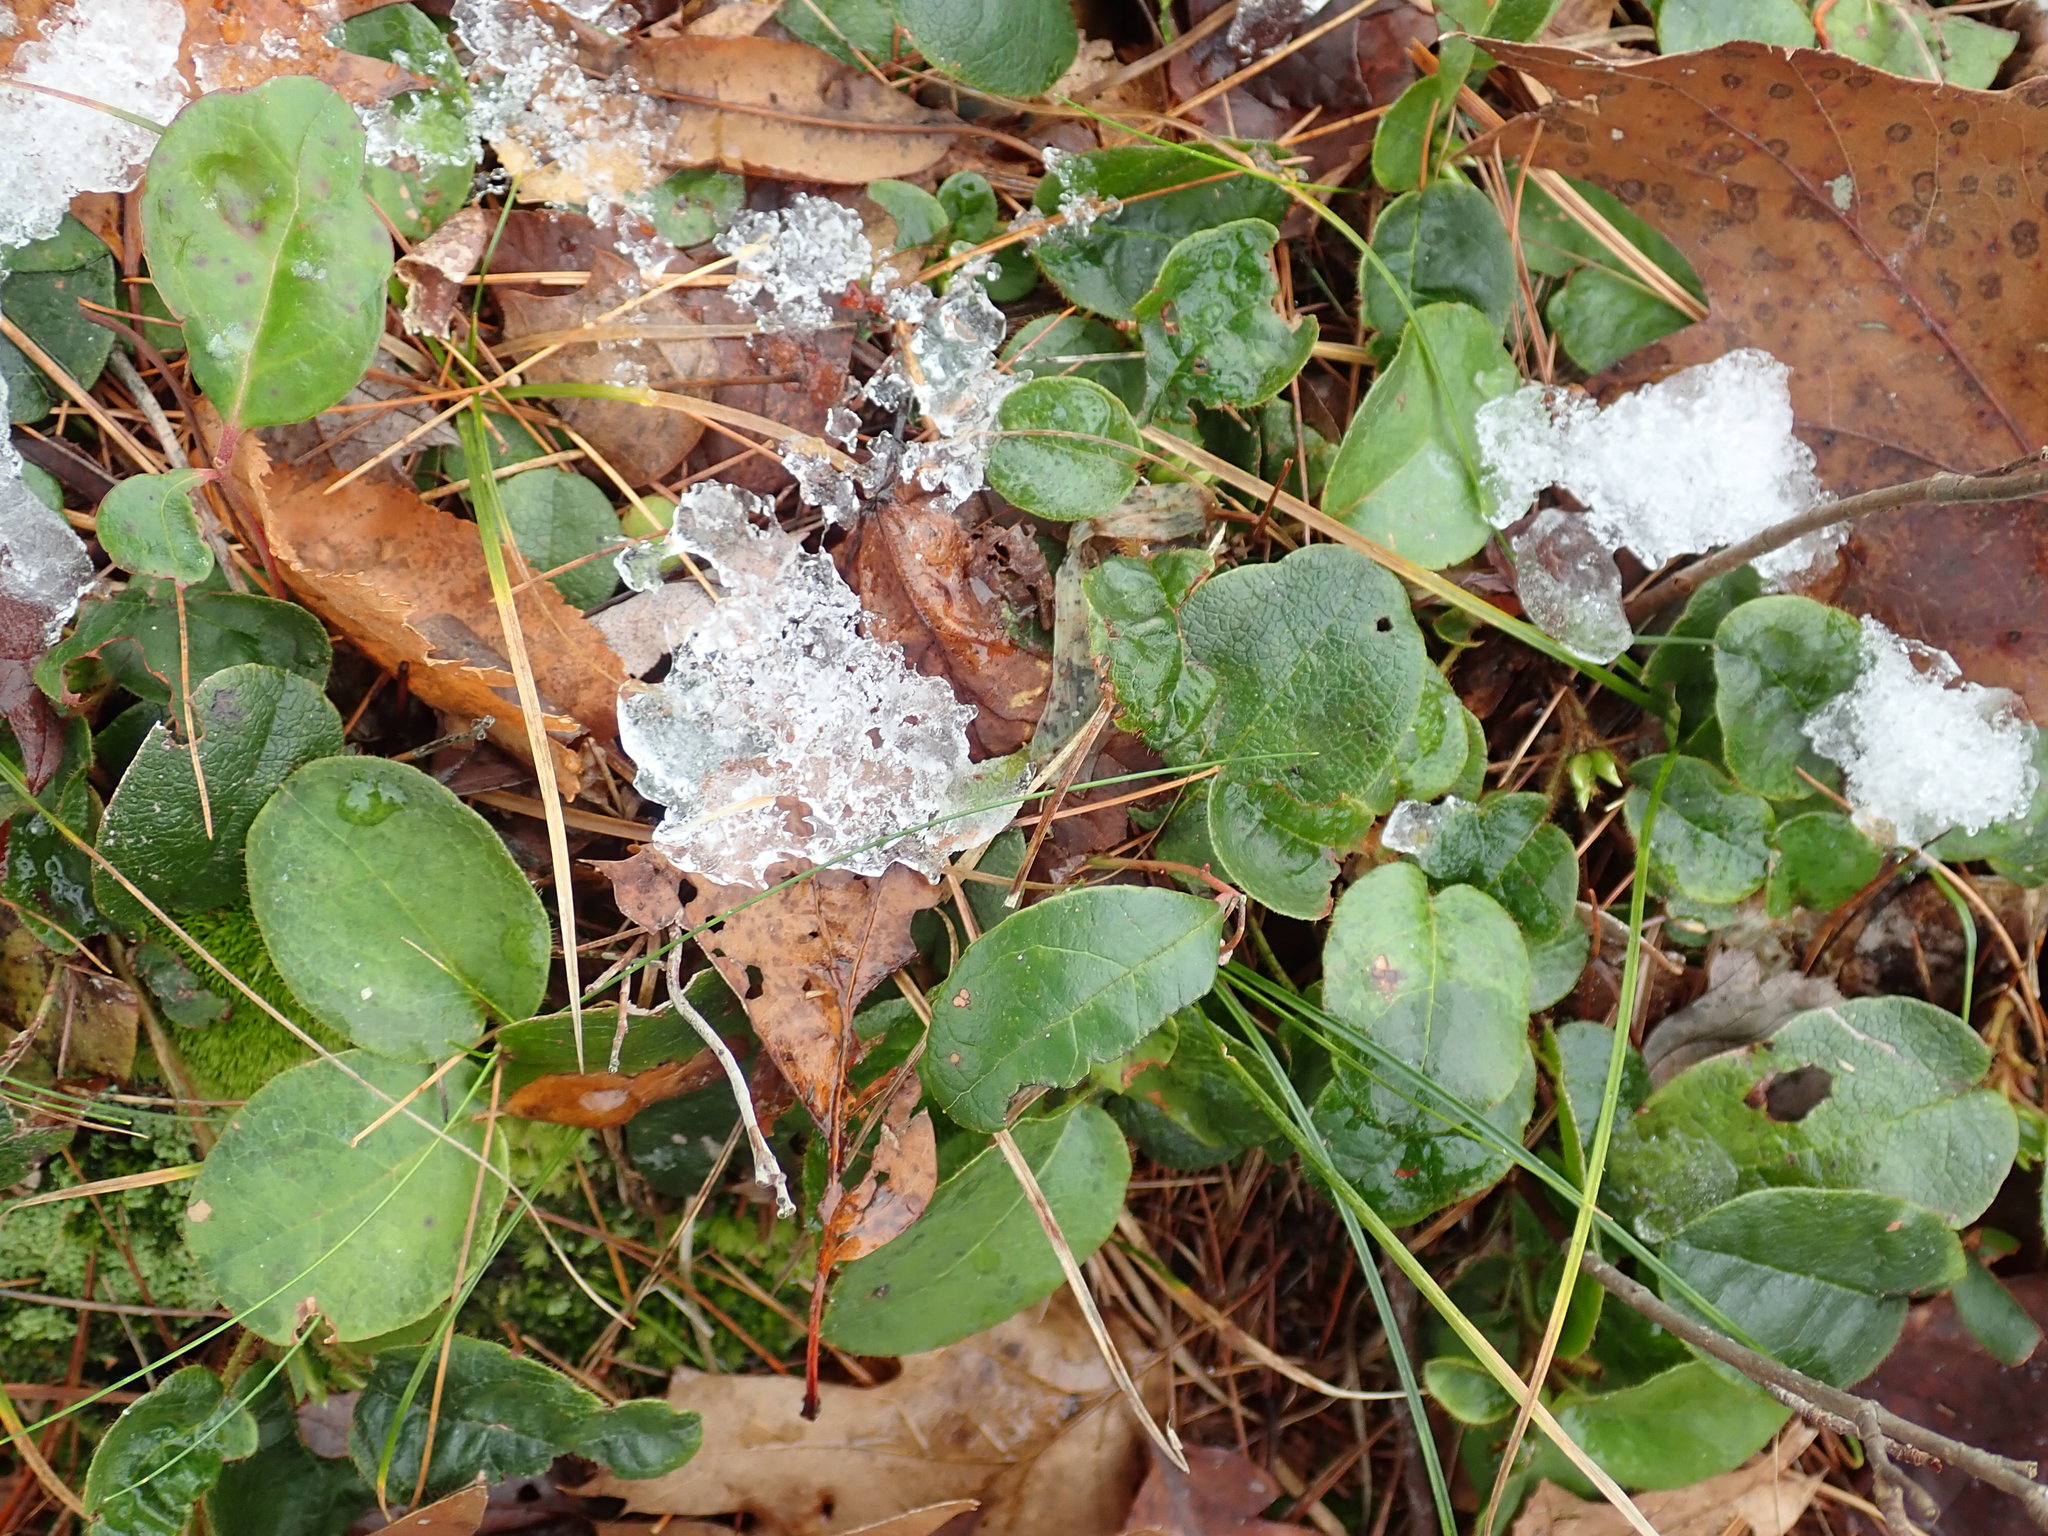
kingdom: Plantae
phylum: Tracheophyta
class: Magnoliopsida
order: Ericales
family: Ericaceae
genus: Epigaea
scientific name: Epigaea repens
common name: Gravelroot
